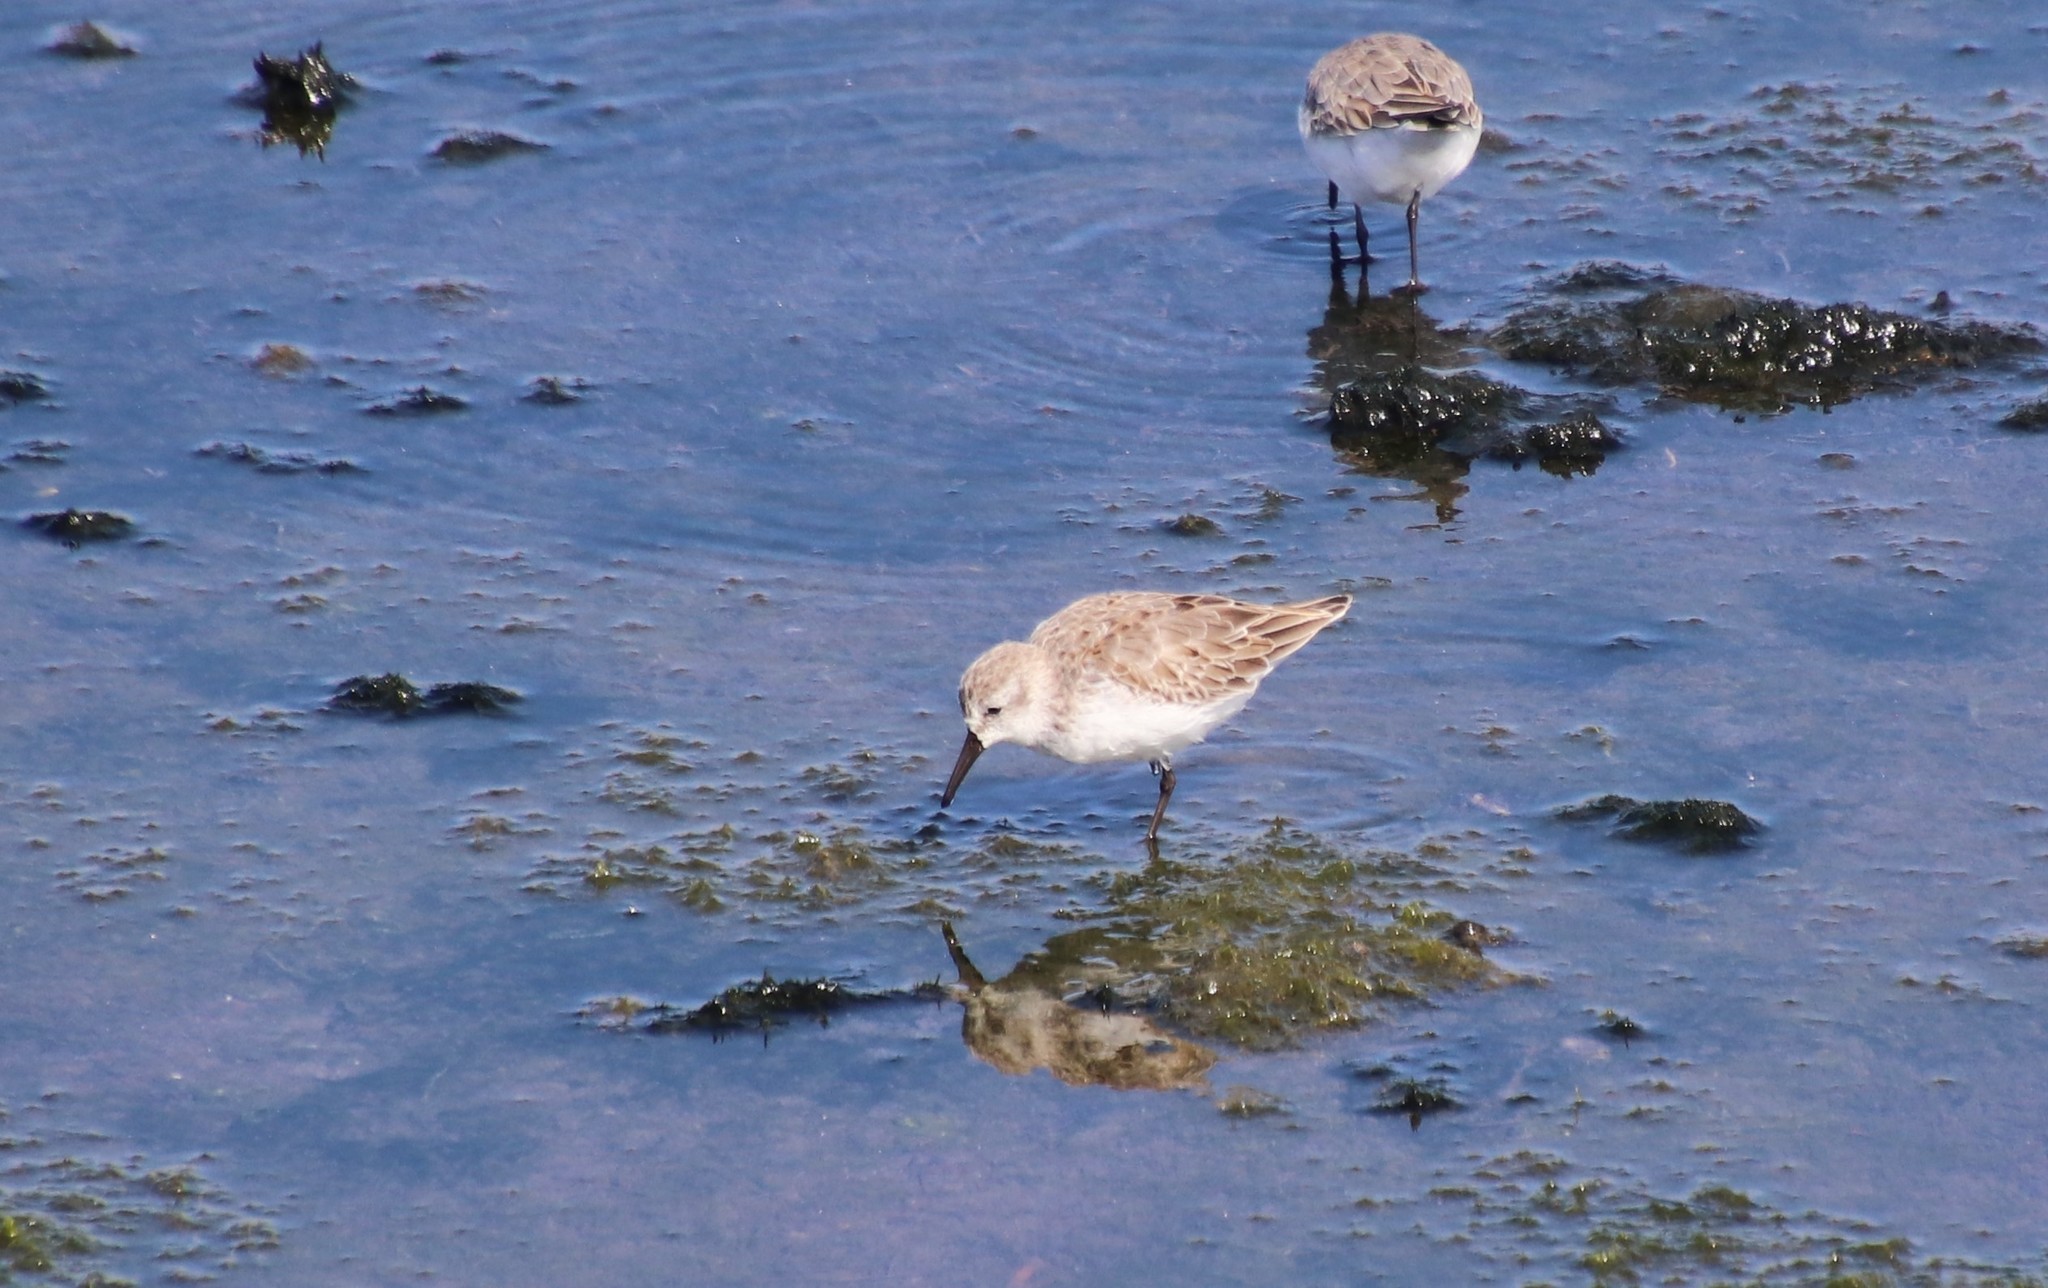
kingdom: Animalia
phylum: Chordata
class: Aves
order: Charadriiformes
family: Scolopacidae
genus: Calidris
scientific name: Calidris mauri
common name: Western sandpiper
